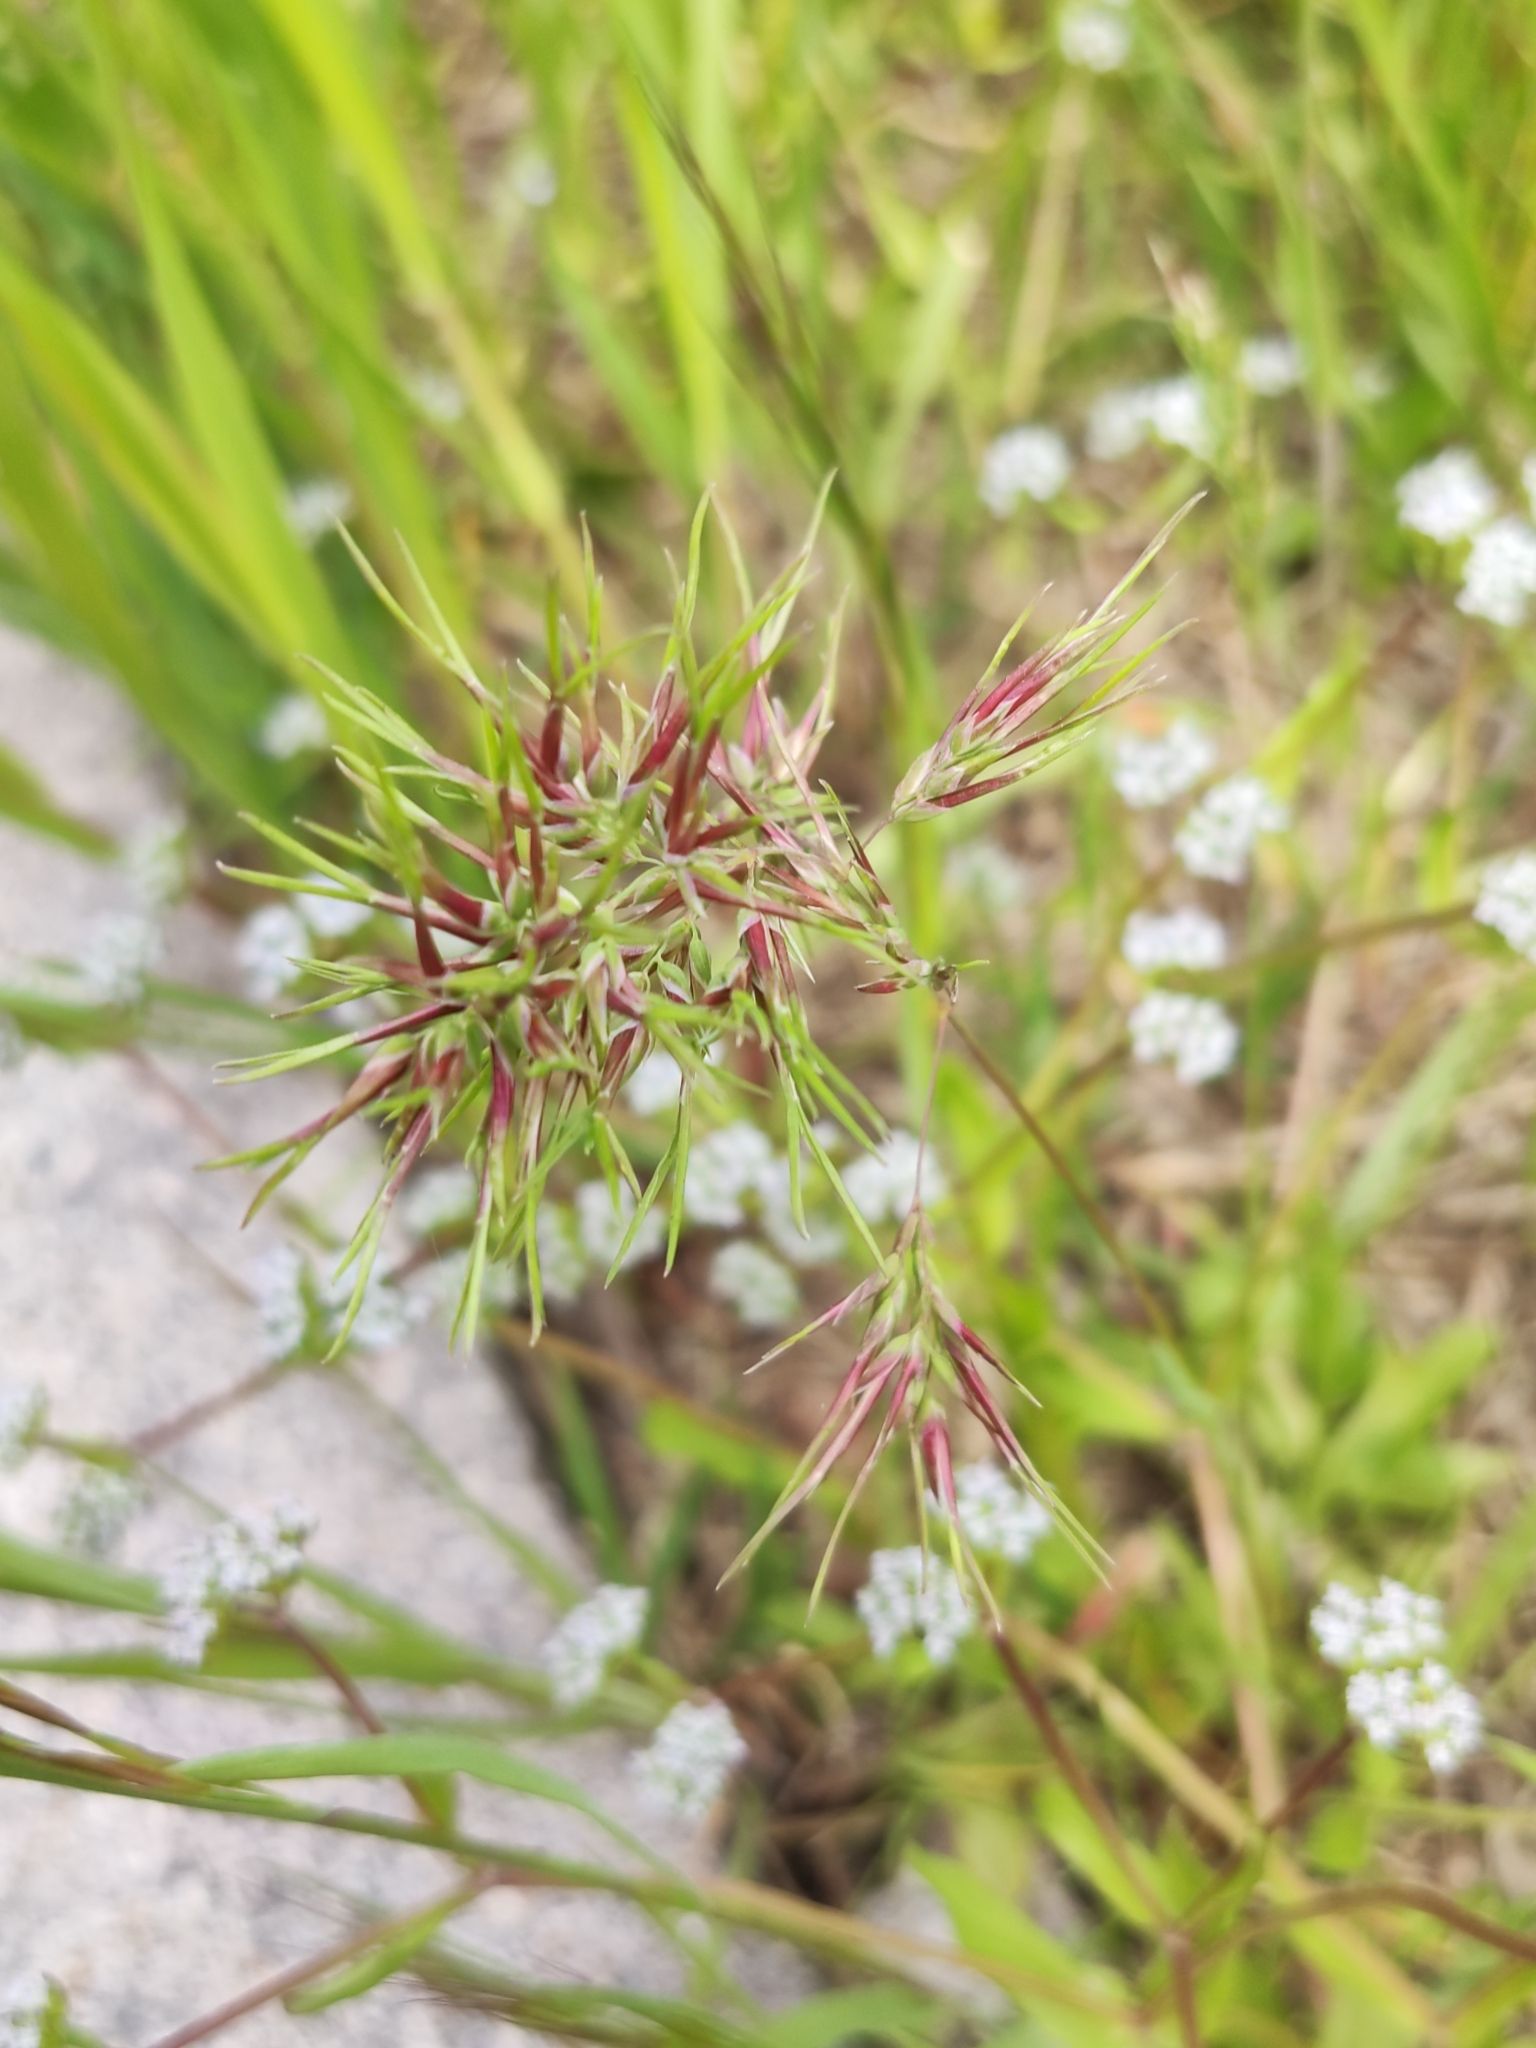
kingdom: Plantae
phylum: Tracheophyta
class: Liliopsida
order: Poales
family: Poaceae
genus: Poa
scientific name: Poa bulbosa
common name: Bulbous bluegrass
